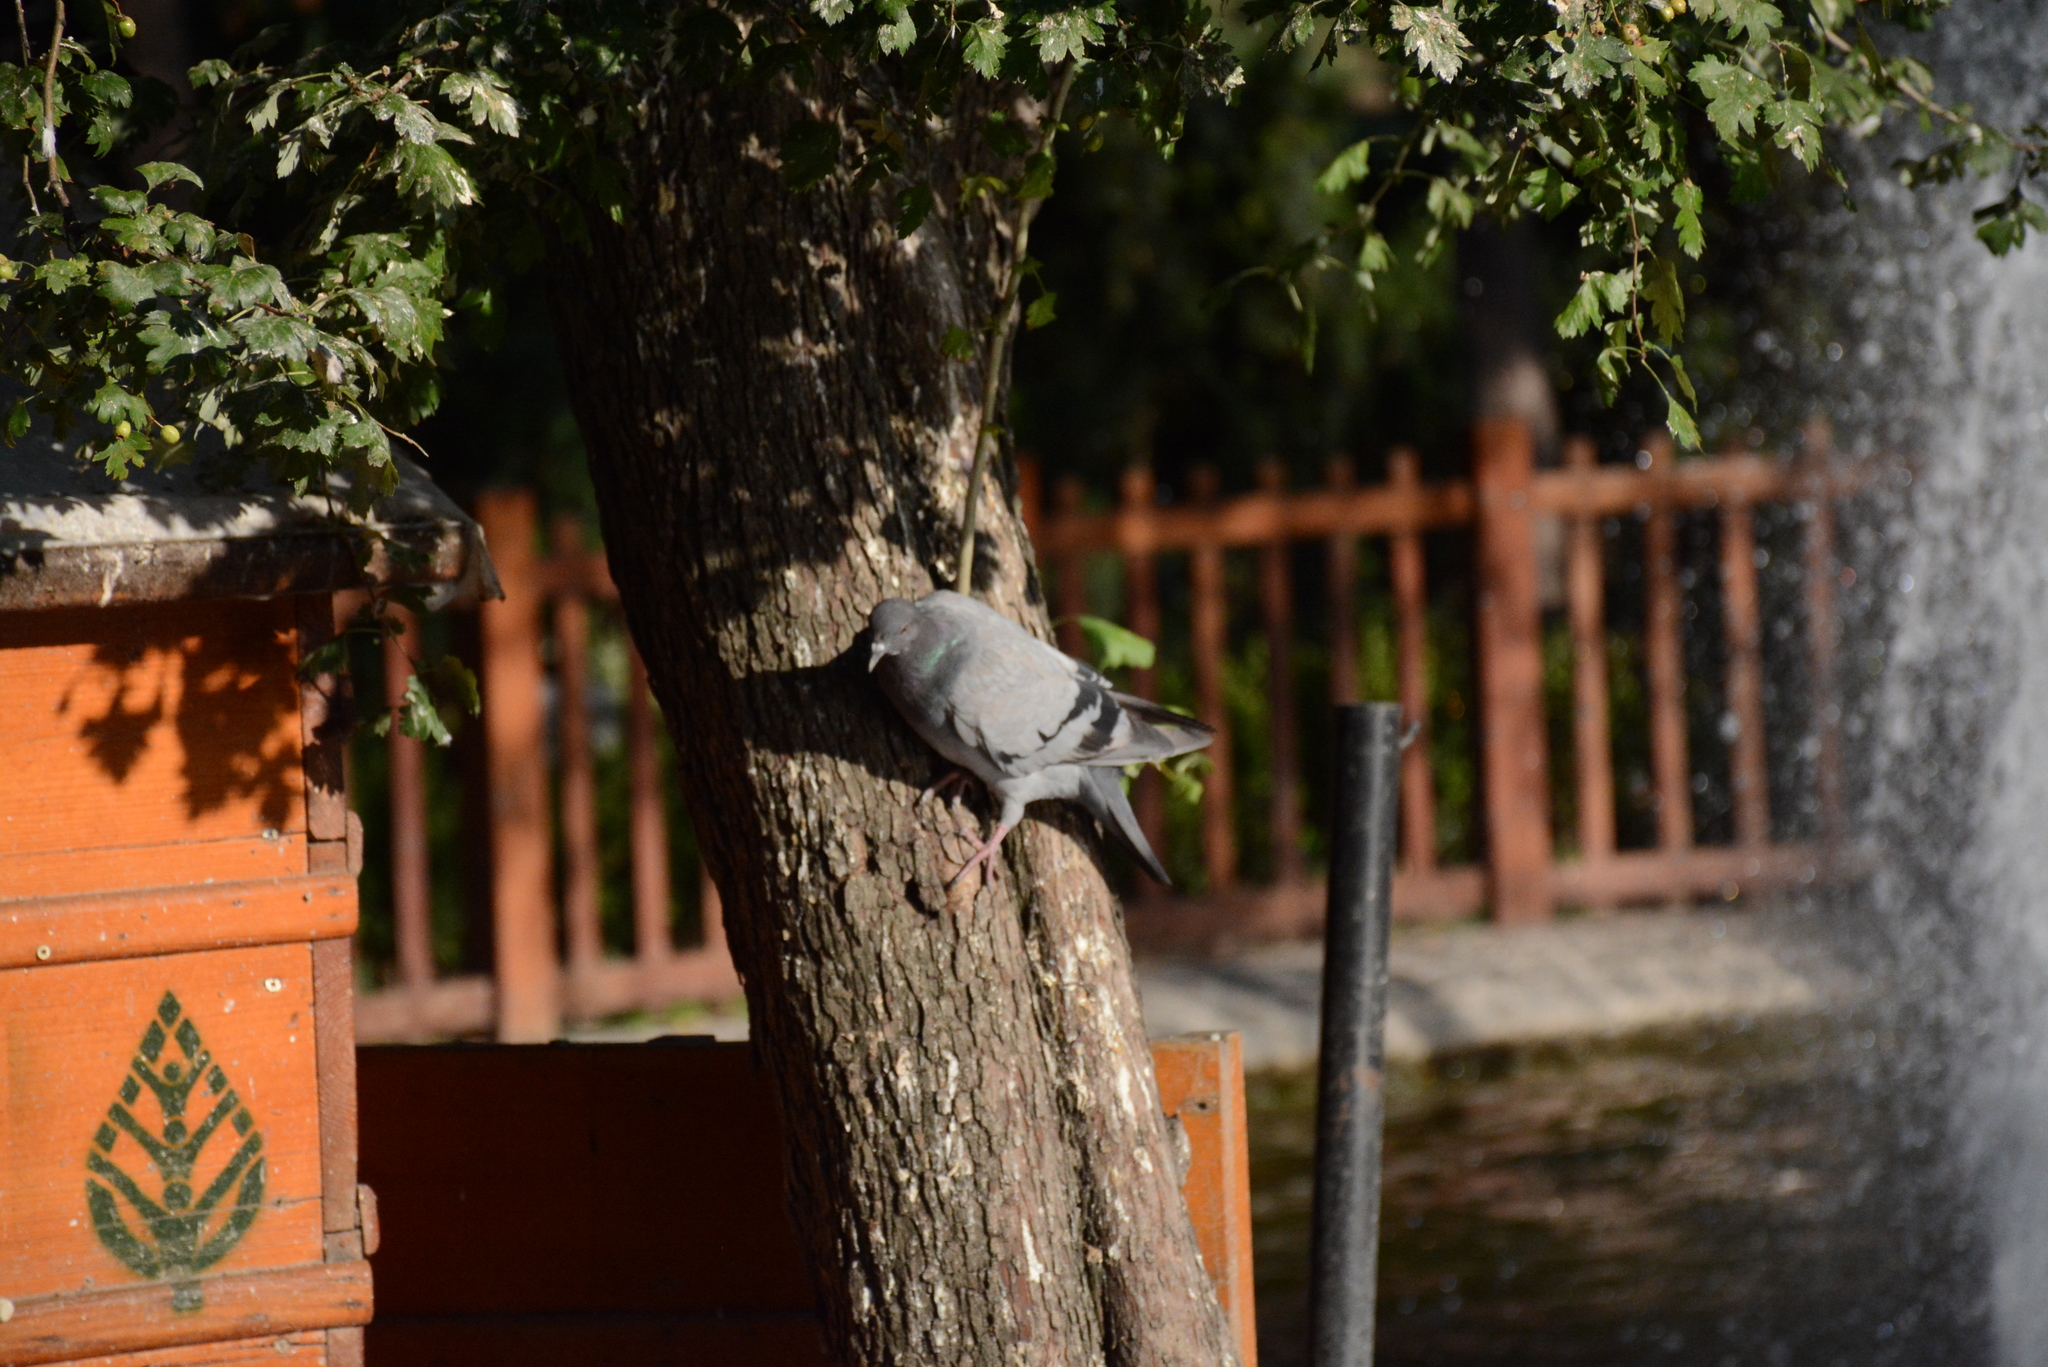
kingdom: Animalia
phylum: Chordata
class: Aves
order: Columbiformes
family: Columbidae
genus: Columba
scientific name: Columba livia
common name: Rock pigeon
